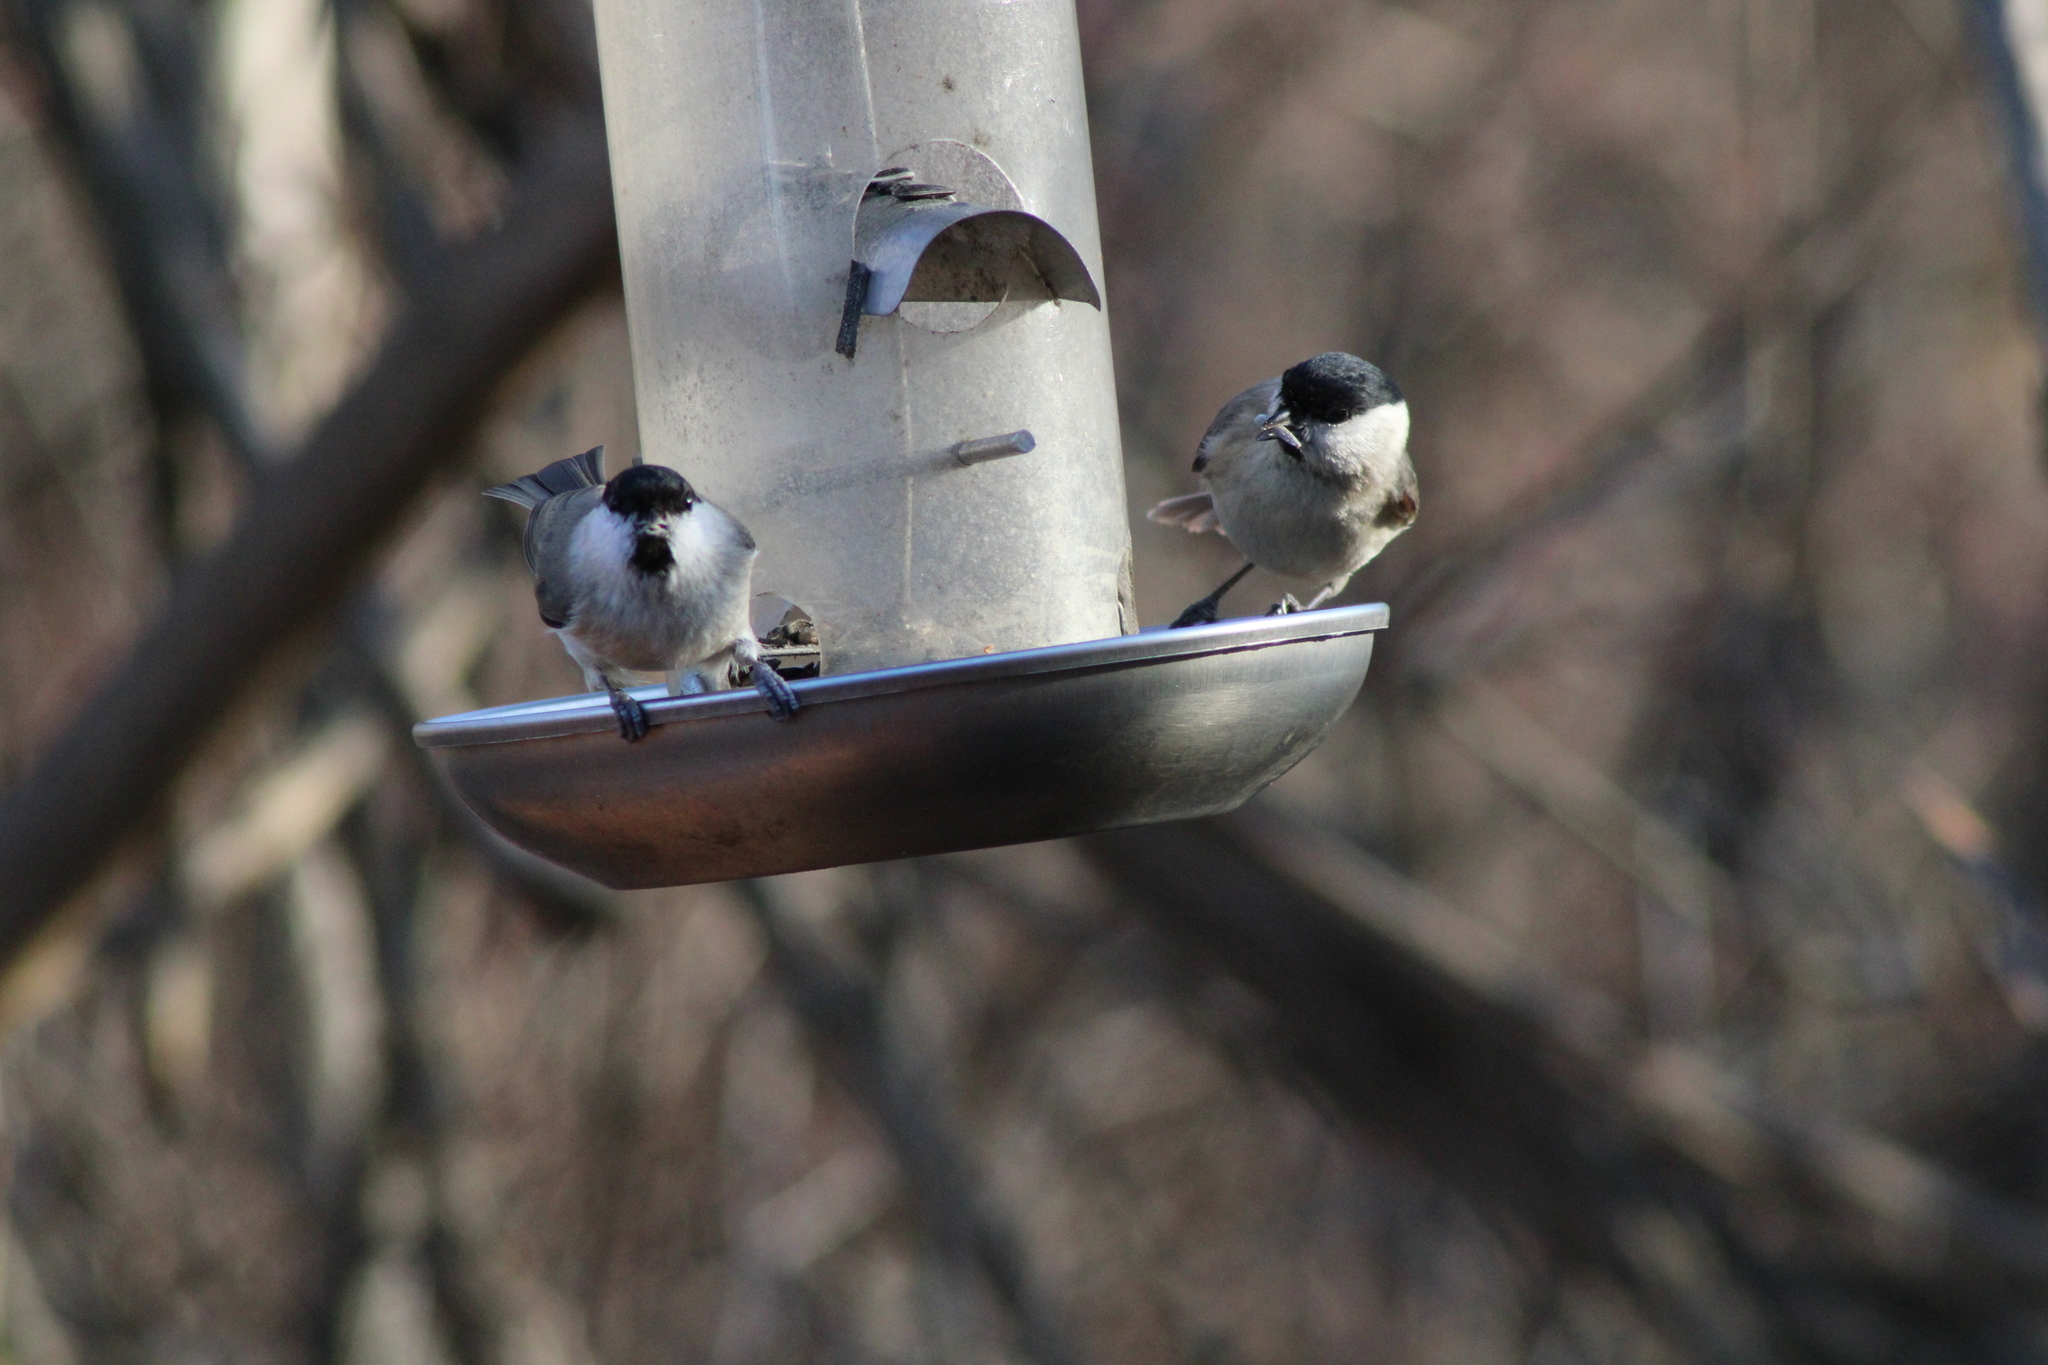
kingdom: Animalia
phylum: Chordata
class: Aves
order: Passeriformes
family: Paridae
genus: Poecile
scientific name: Poecile palustris
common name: Marsh tit
